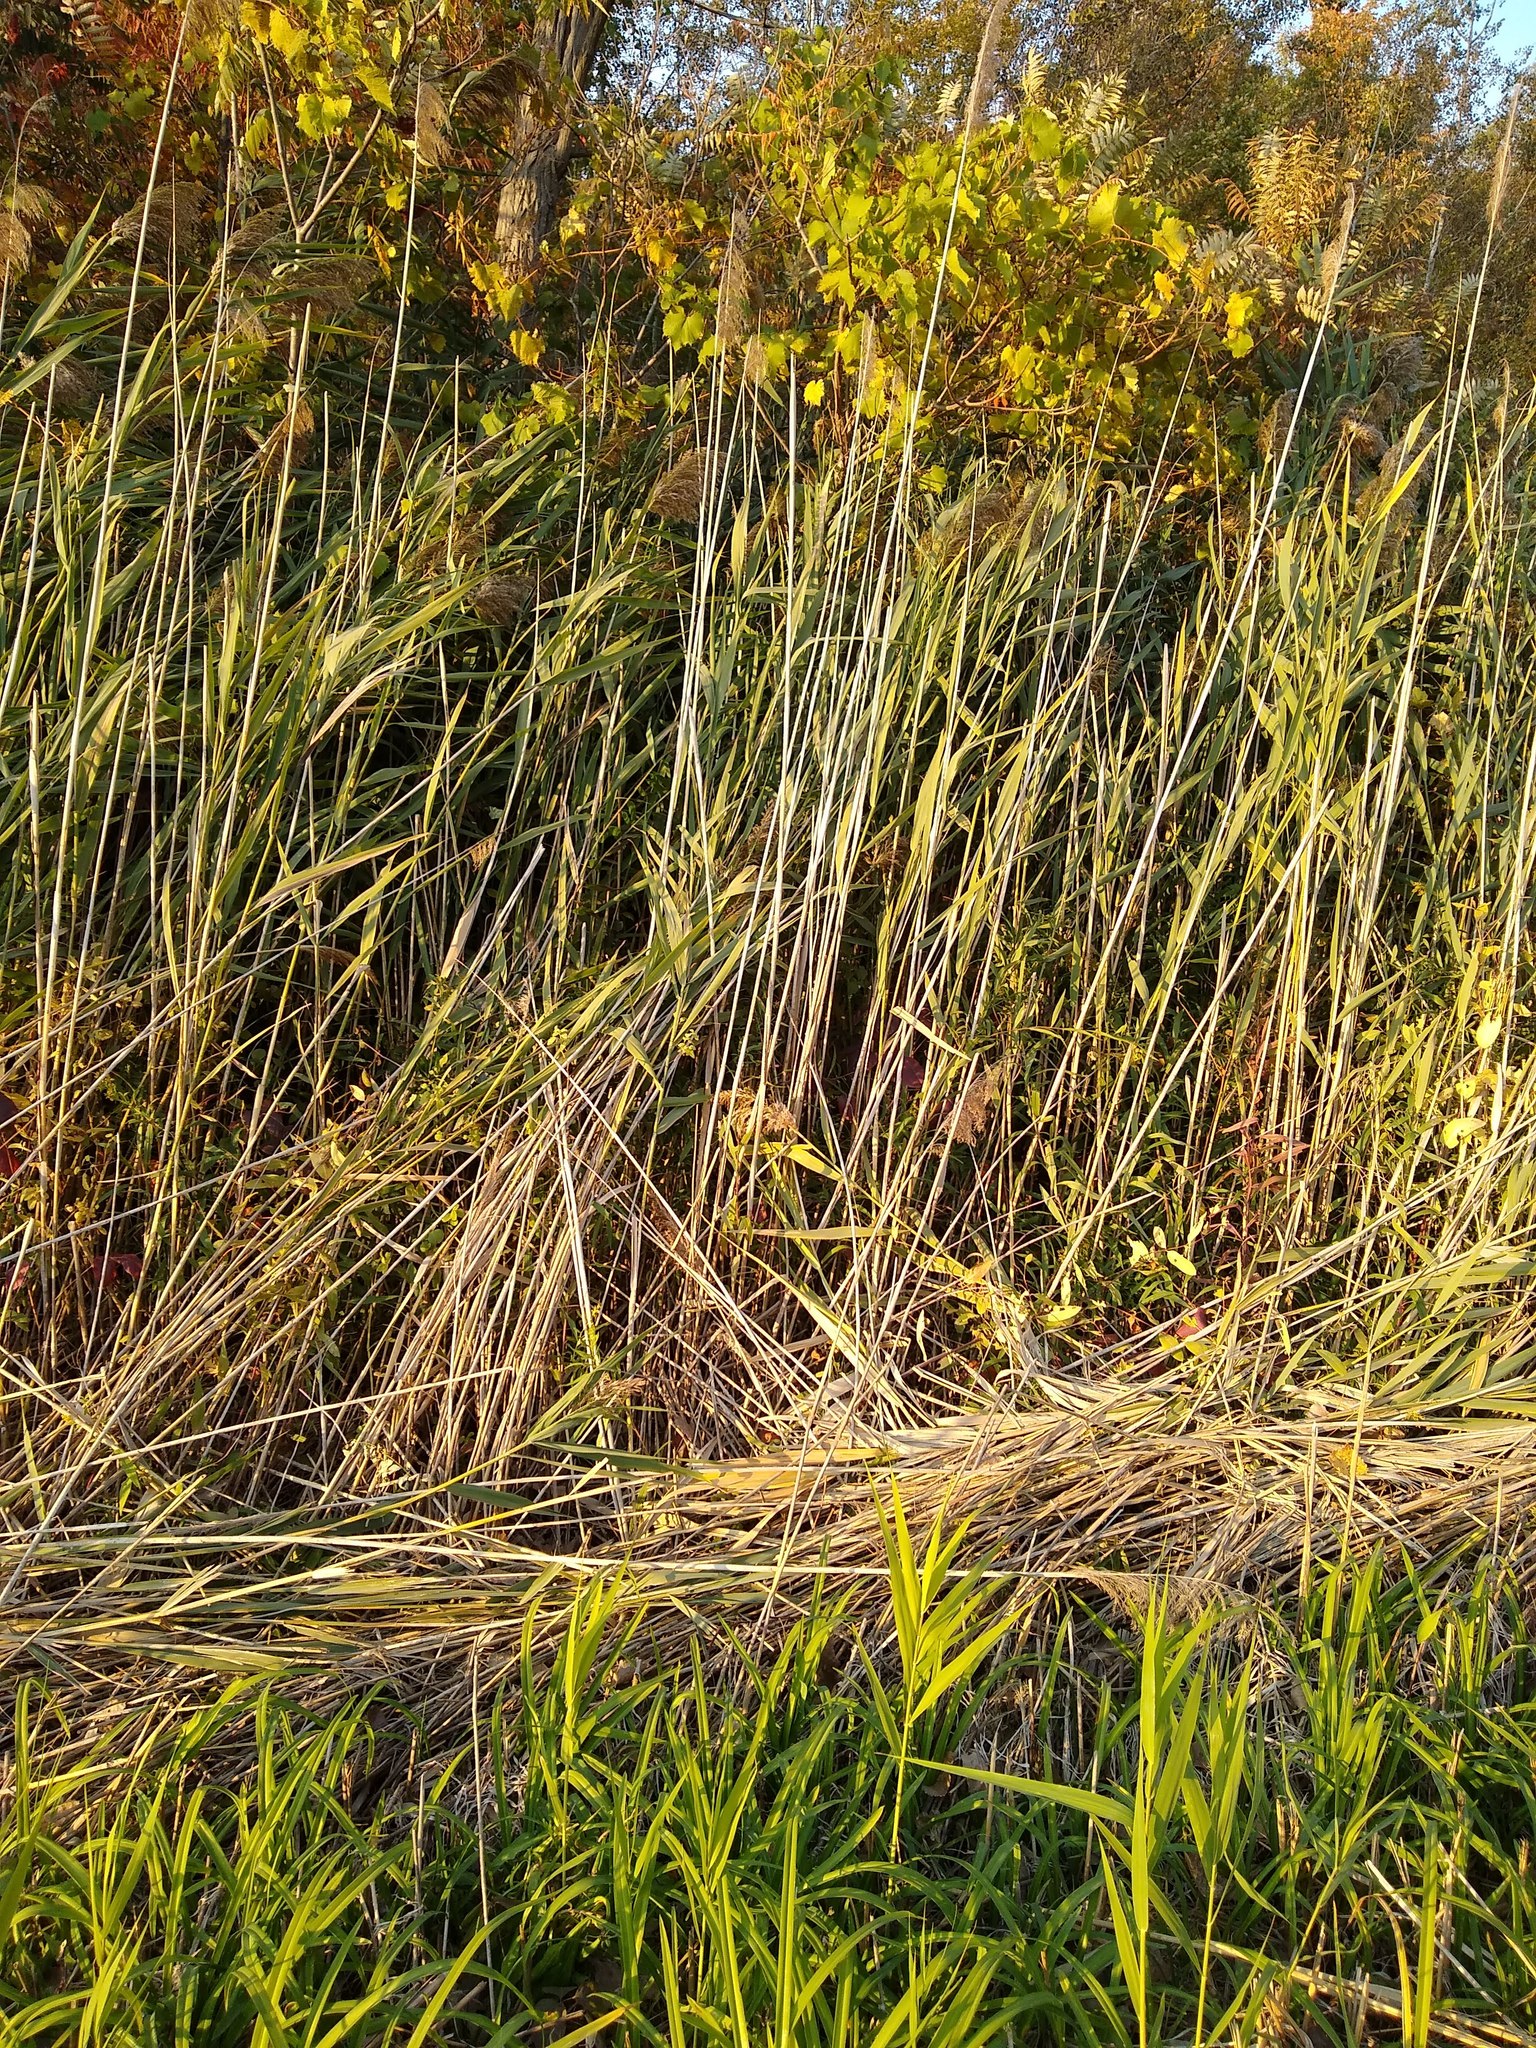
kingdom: Plantae
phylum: Tracheophyta
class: Liliopsida
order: Poales
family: Poaceae
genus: Phragmites
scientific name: Phragmites australis
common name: Common reed
